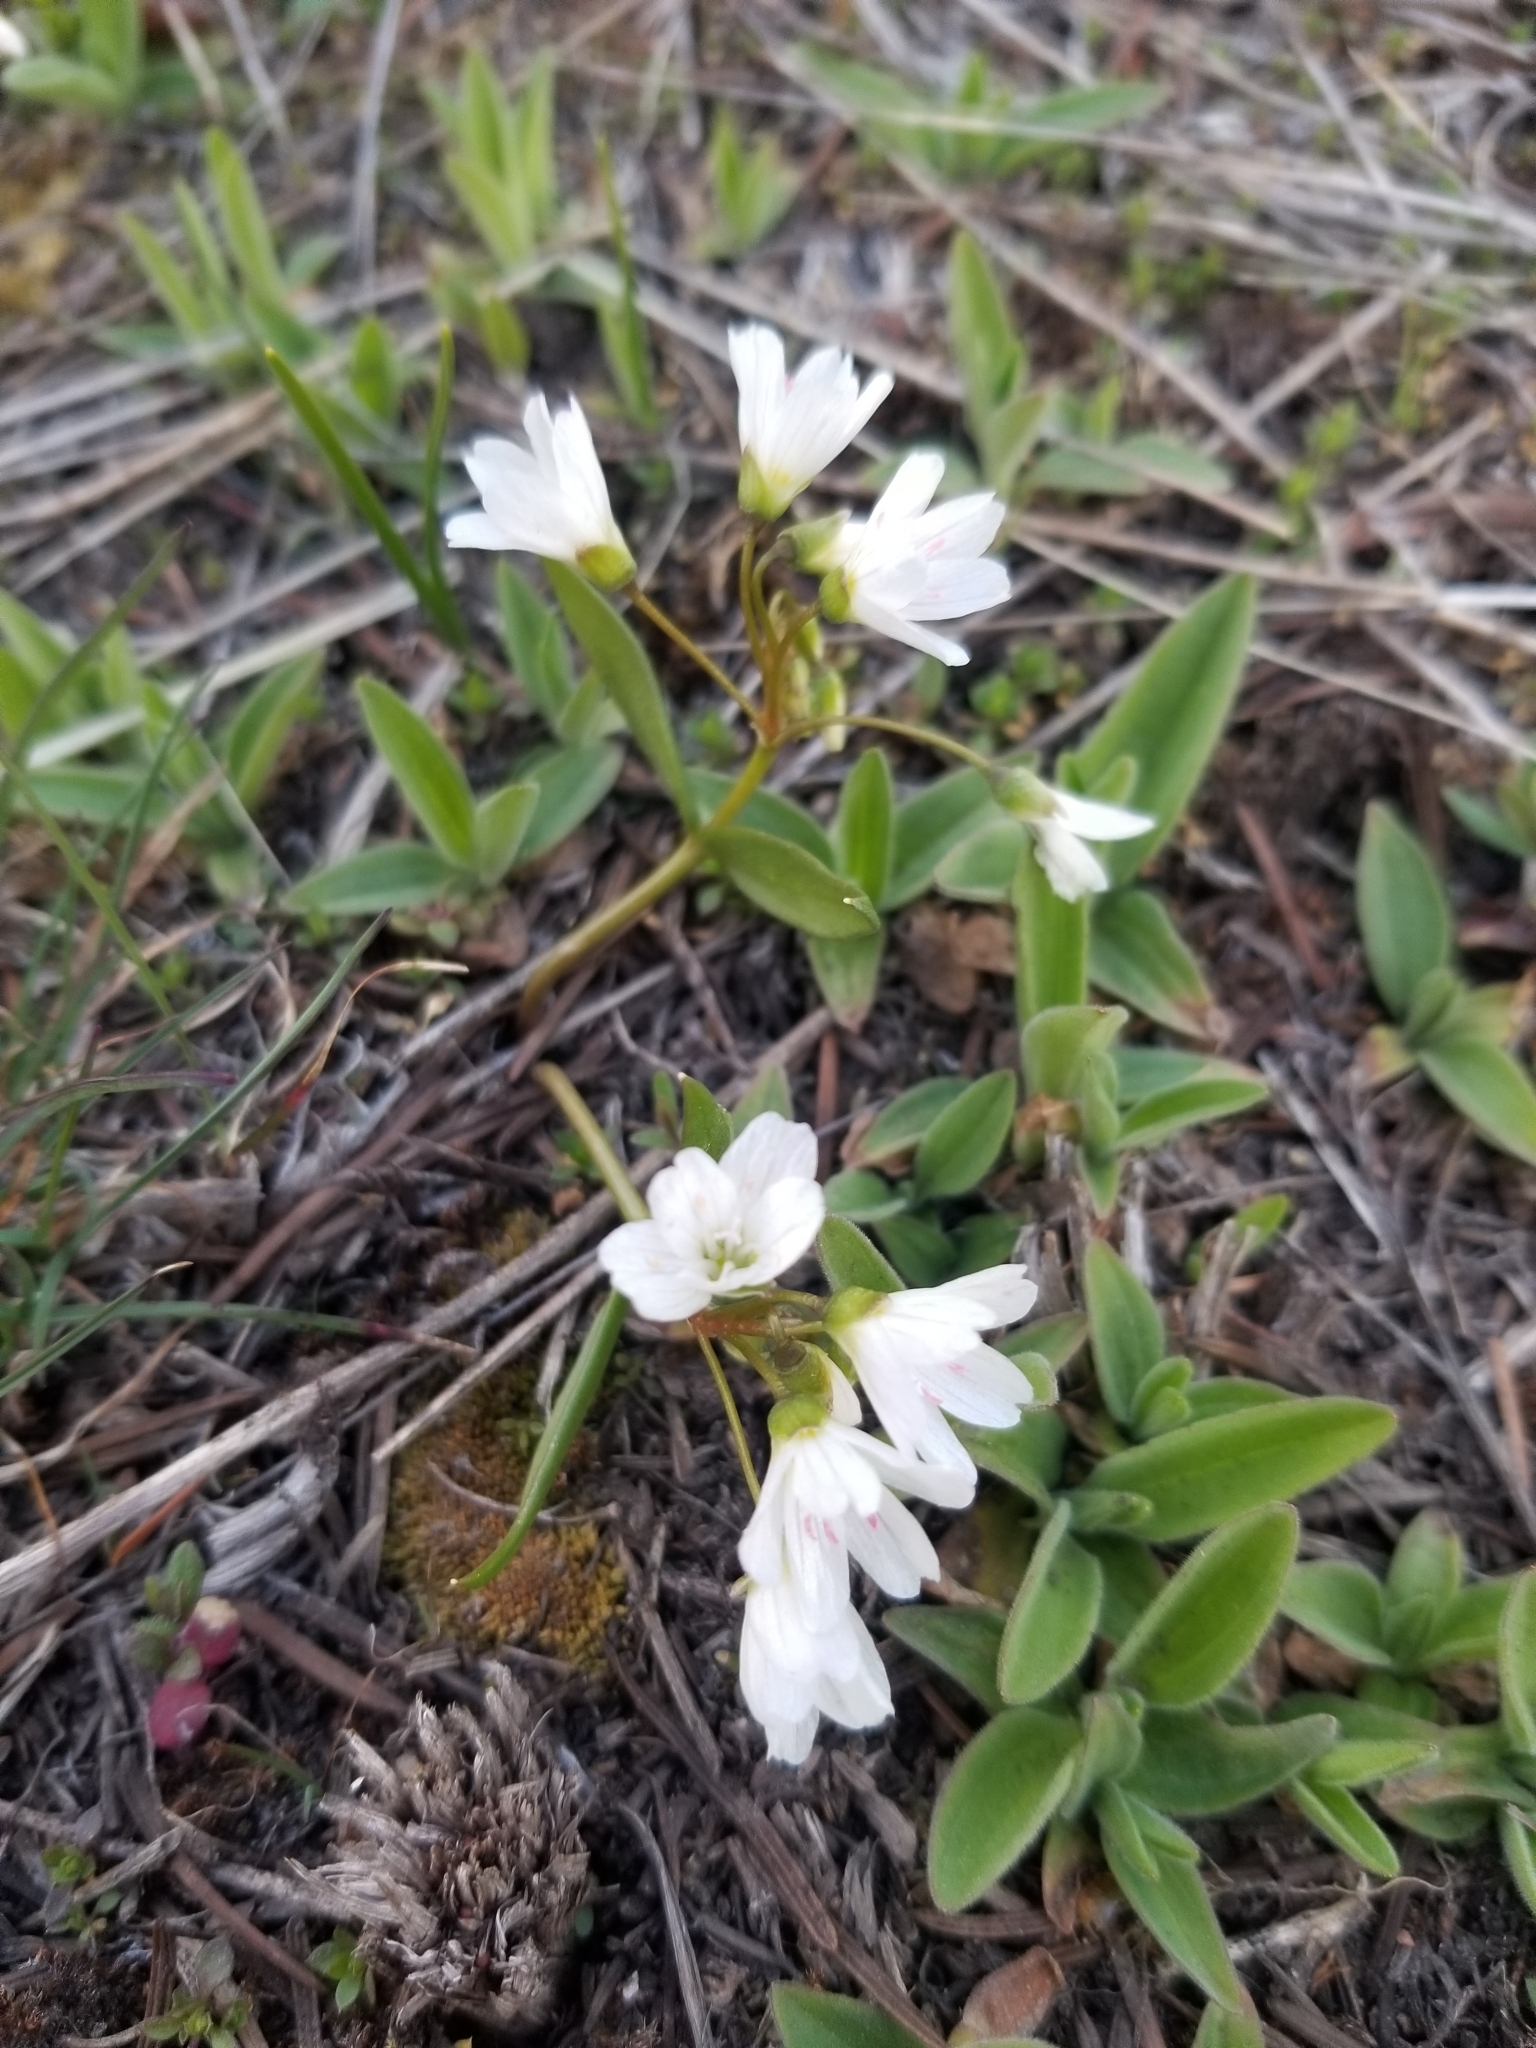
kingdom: Plantae
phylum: Tracheophyta
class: Magnoliopsida
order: Caryophyllales
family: Montiaceae
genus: Claytonia
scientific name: Claytonia lanceolata
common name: Western spring-beauty
